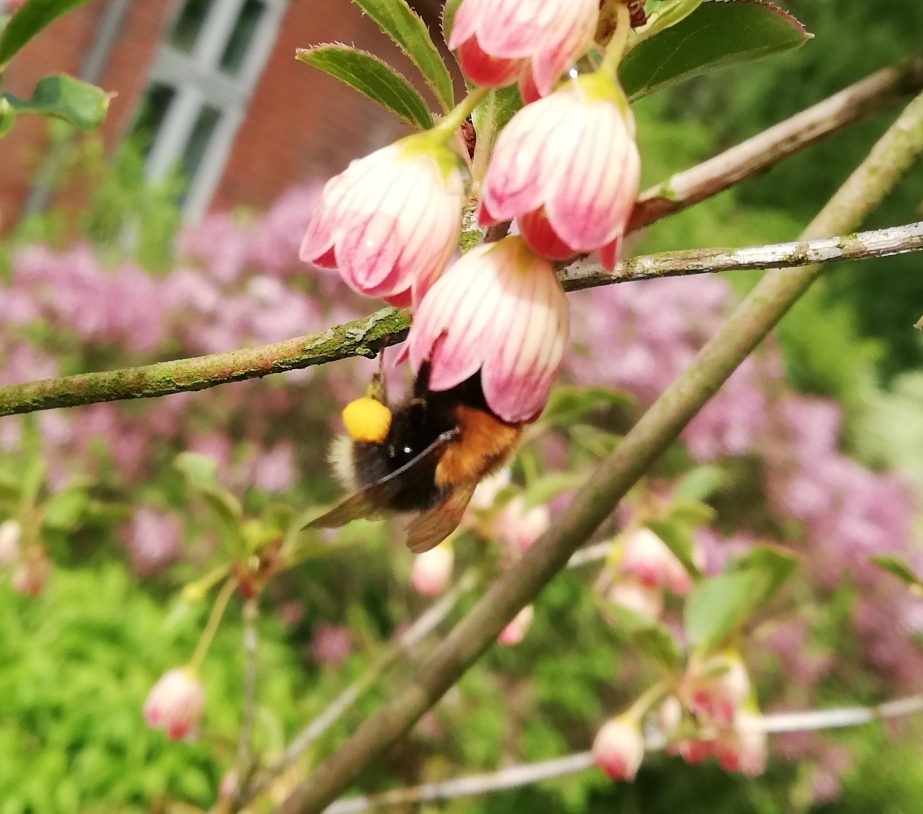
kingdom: Animalia
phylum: Arthropoda
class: Insecta
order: Hymenoptera
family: Apidae
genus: Bombus
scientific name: Bombus hypnorum
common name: New garden bumblebee
